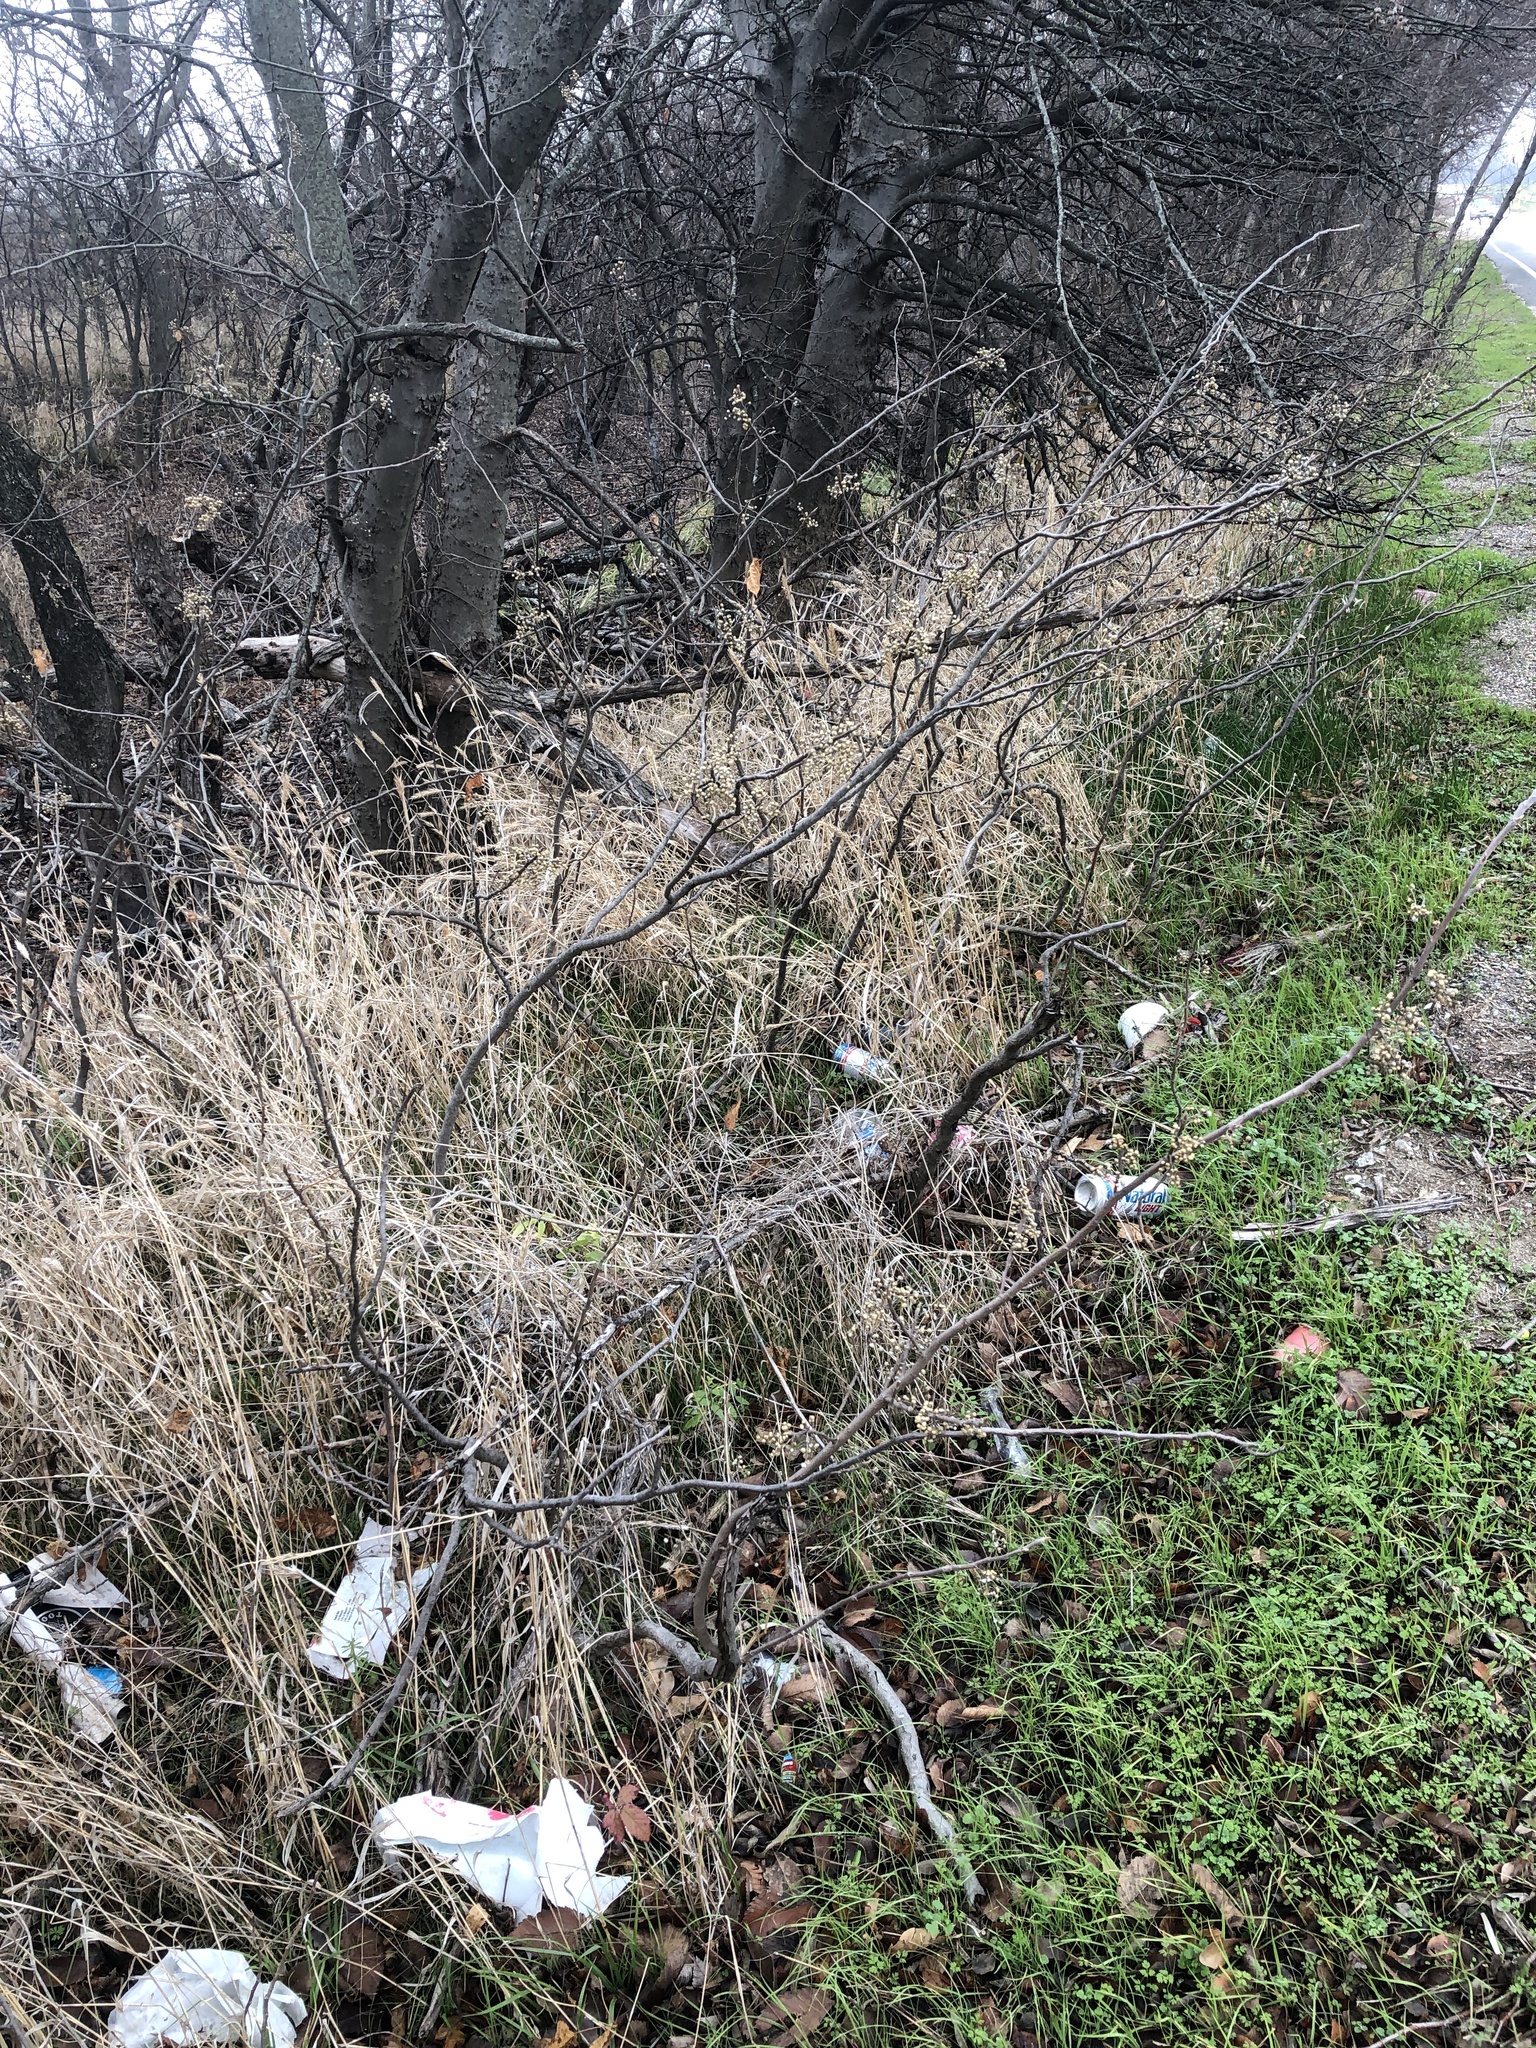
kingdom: Plantae
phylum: Tracheophyta
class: Magnoliopsida
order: Sapindales
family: Anacardiaceae
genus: Toxicodendron
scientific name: Toxicodendron radicans
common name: Poison ivy
